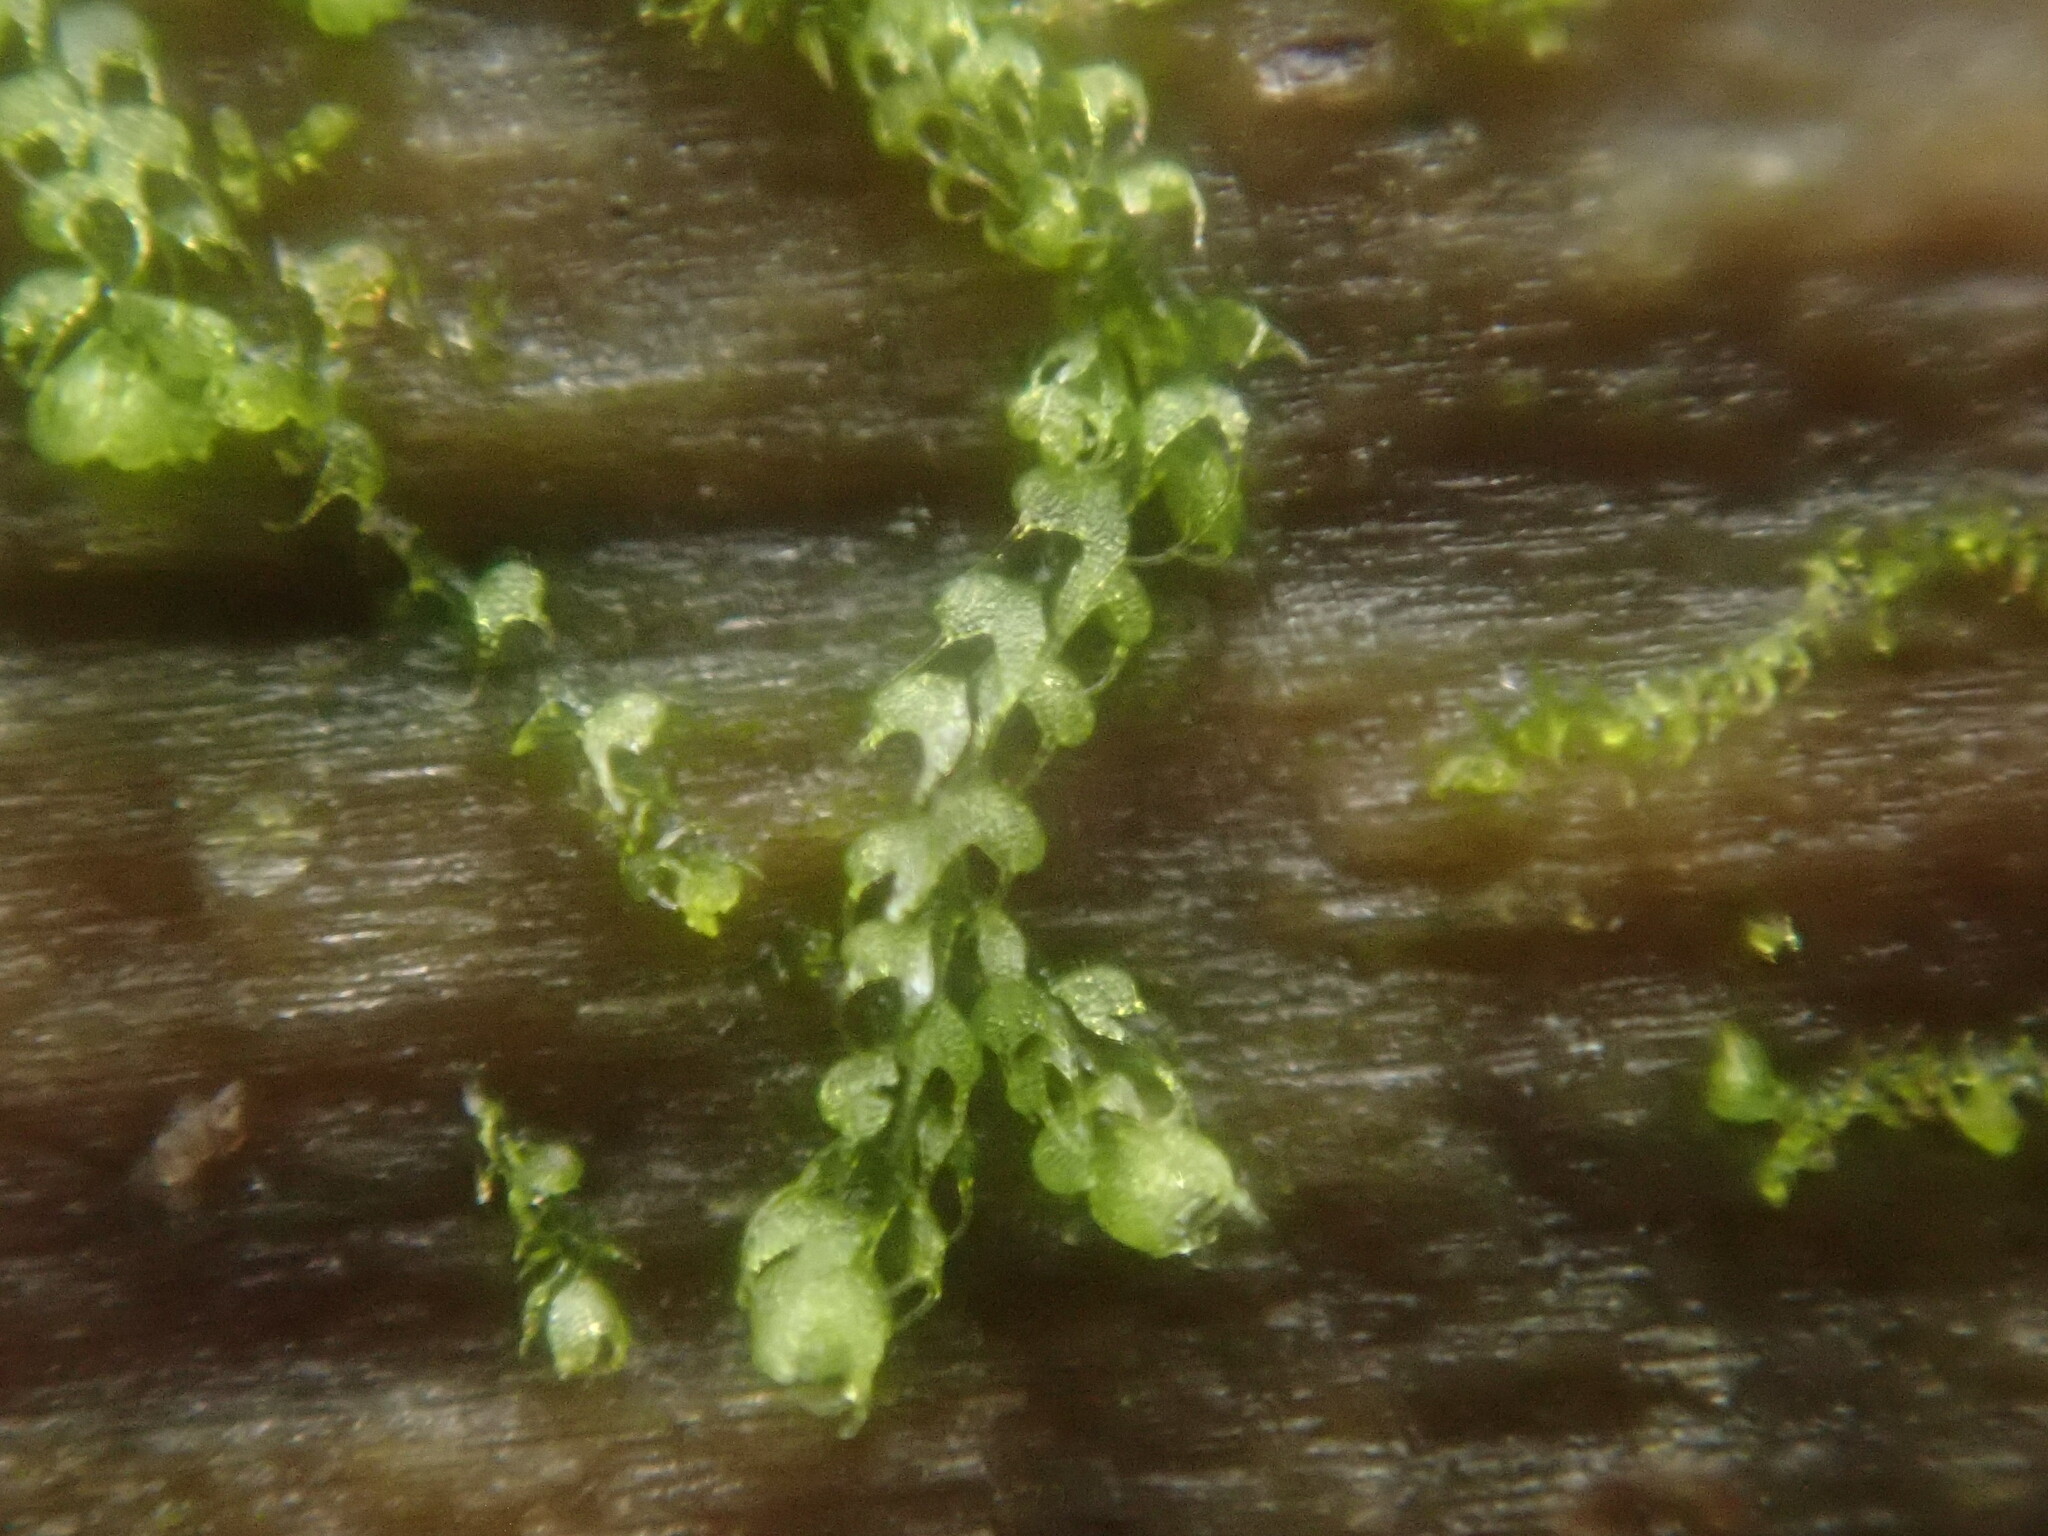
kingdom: Plantae
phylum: Marchantiophyta
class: Jungermanniopsida
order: Jungermanniales
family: Cephaloziaceae
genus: Nowellia
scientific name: Nowellia curvifolia
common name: Wood rustwort
